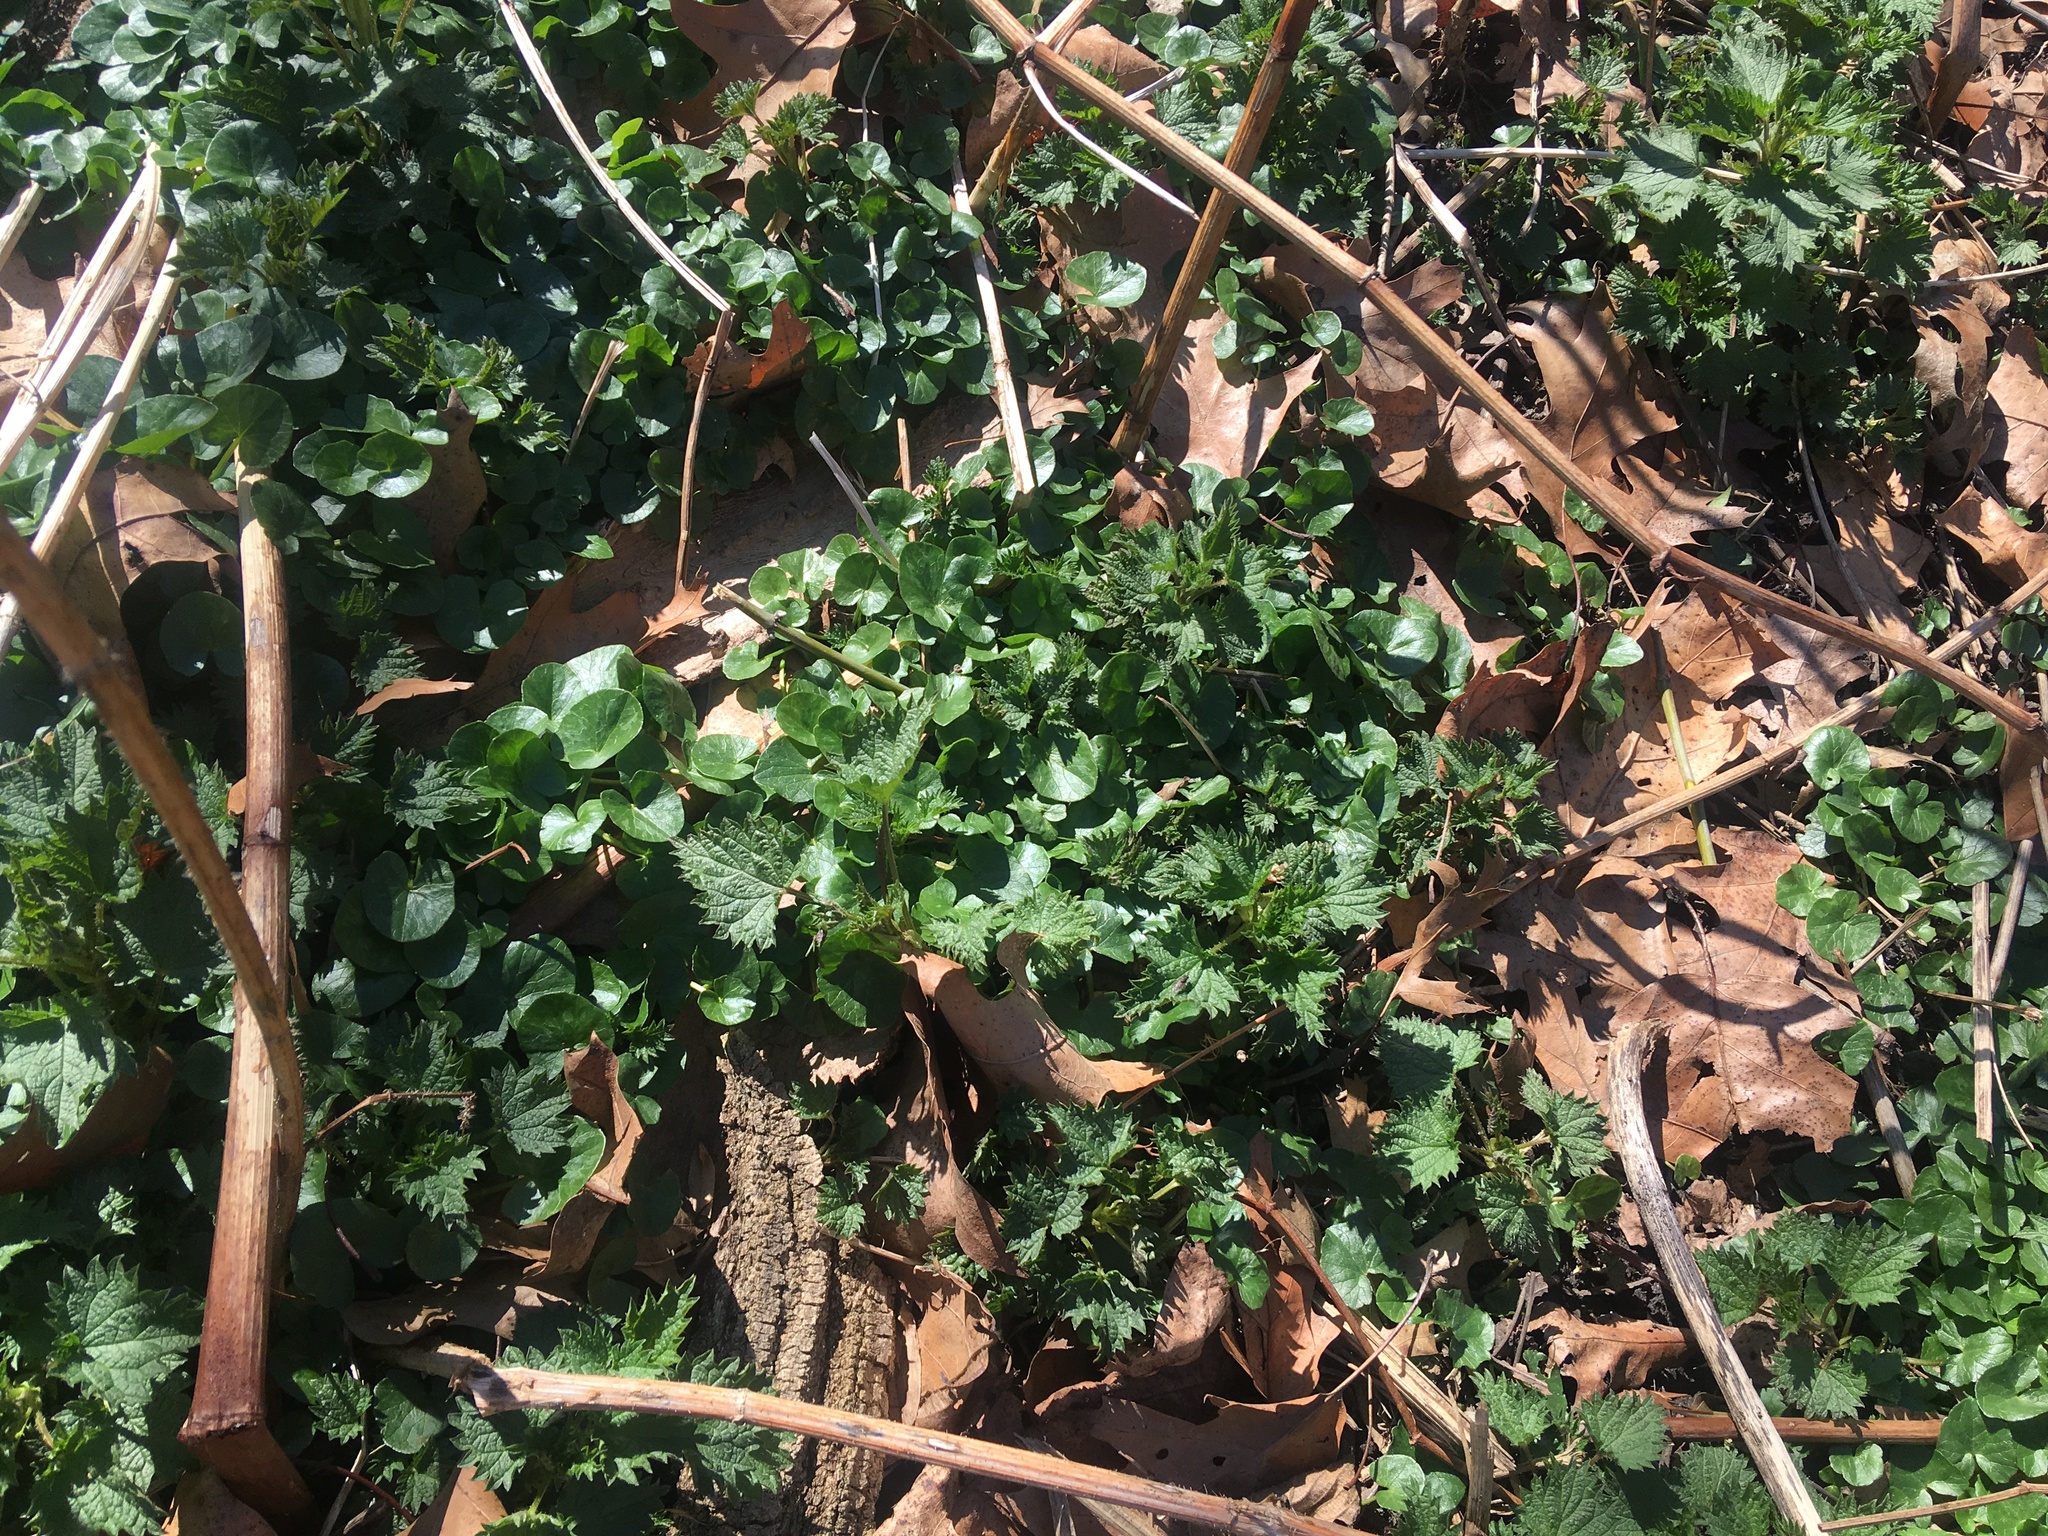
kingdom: Plantae
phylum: Tracheophyta
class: Magnoliopsida
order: Ranunculales
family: Ranunculaceae
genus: Ficaria
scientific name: Ficaria verna
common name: Lesser celandine
